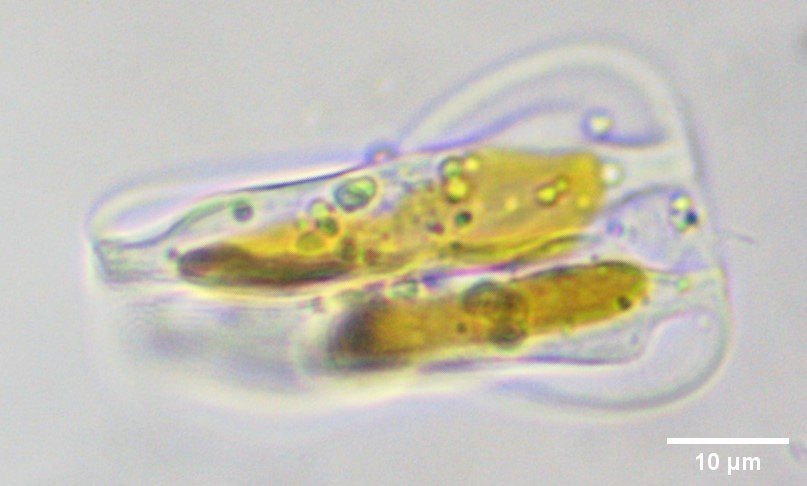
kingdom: Chromista
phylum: Ochrophyta
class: Bacillariophyceae
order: Surirellales
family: Entomoneidaceae
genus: Entomoneis
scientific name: Entomoneis paludosa
